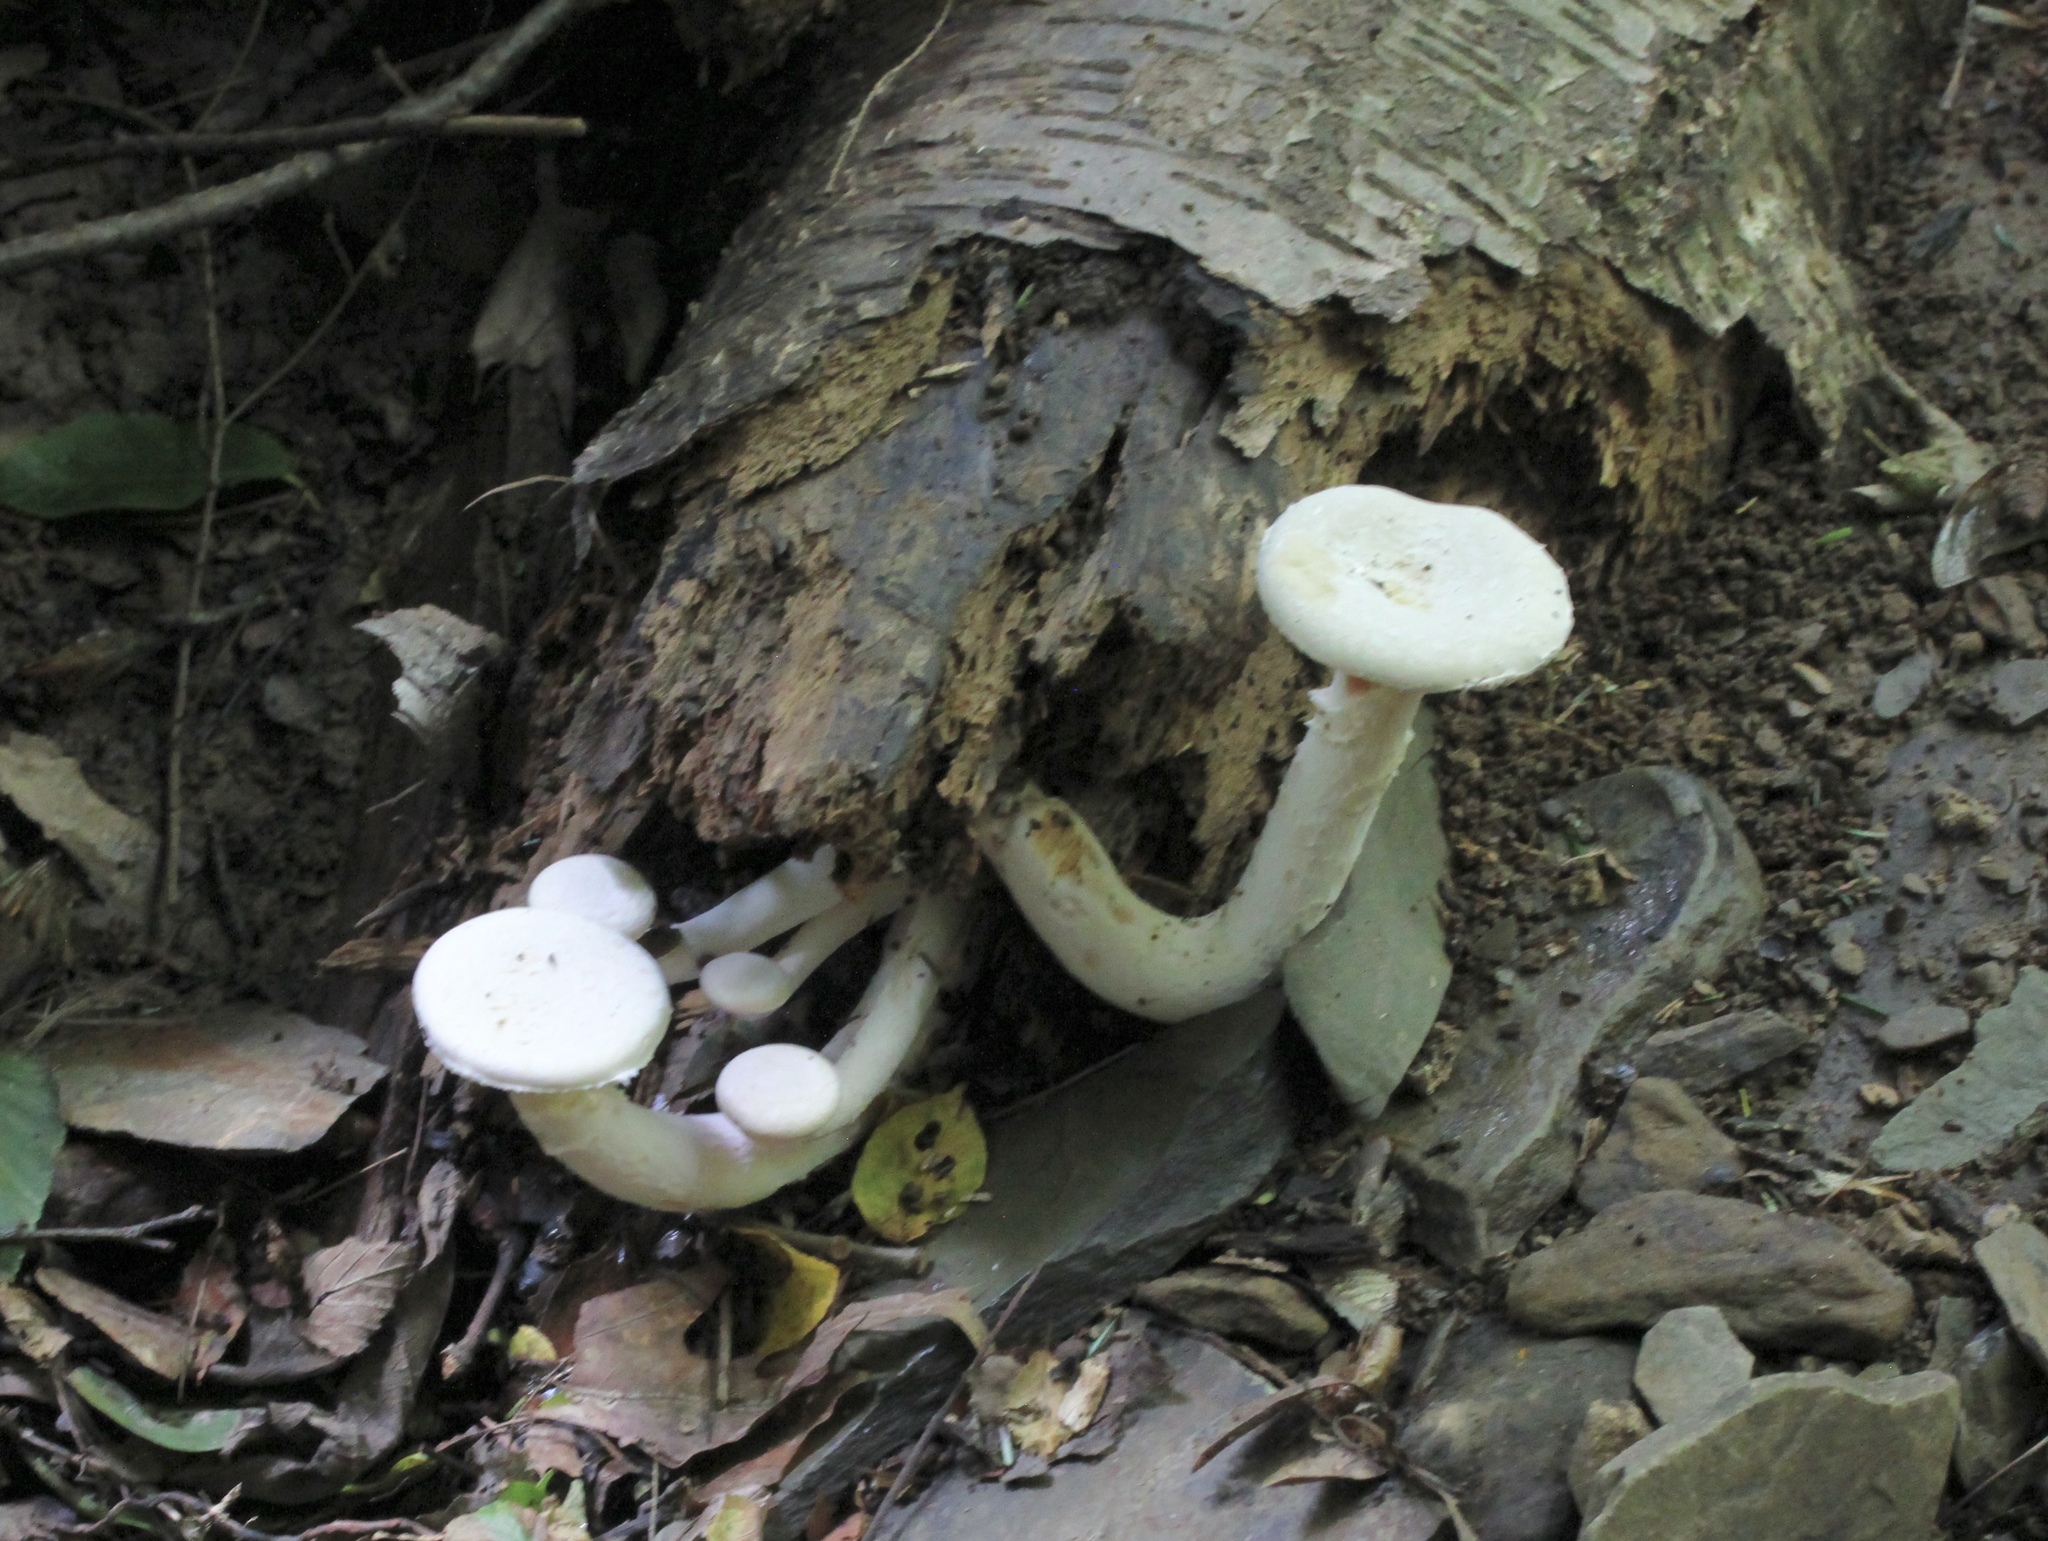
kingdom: Fungi
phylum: Basidiomycota
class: Agaricomycetes
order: Agaricales
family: Pleurotaceae
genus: Pleurotus
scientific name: Pleurotus dryinus
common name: Veiled oyster
